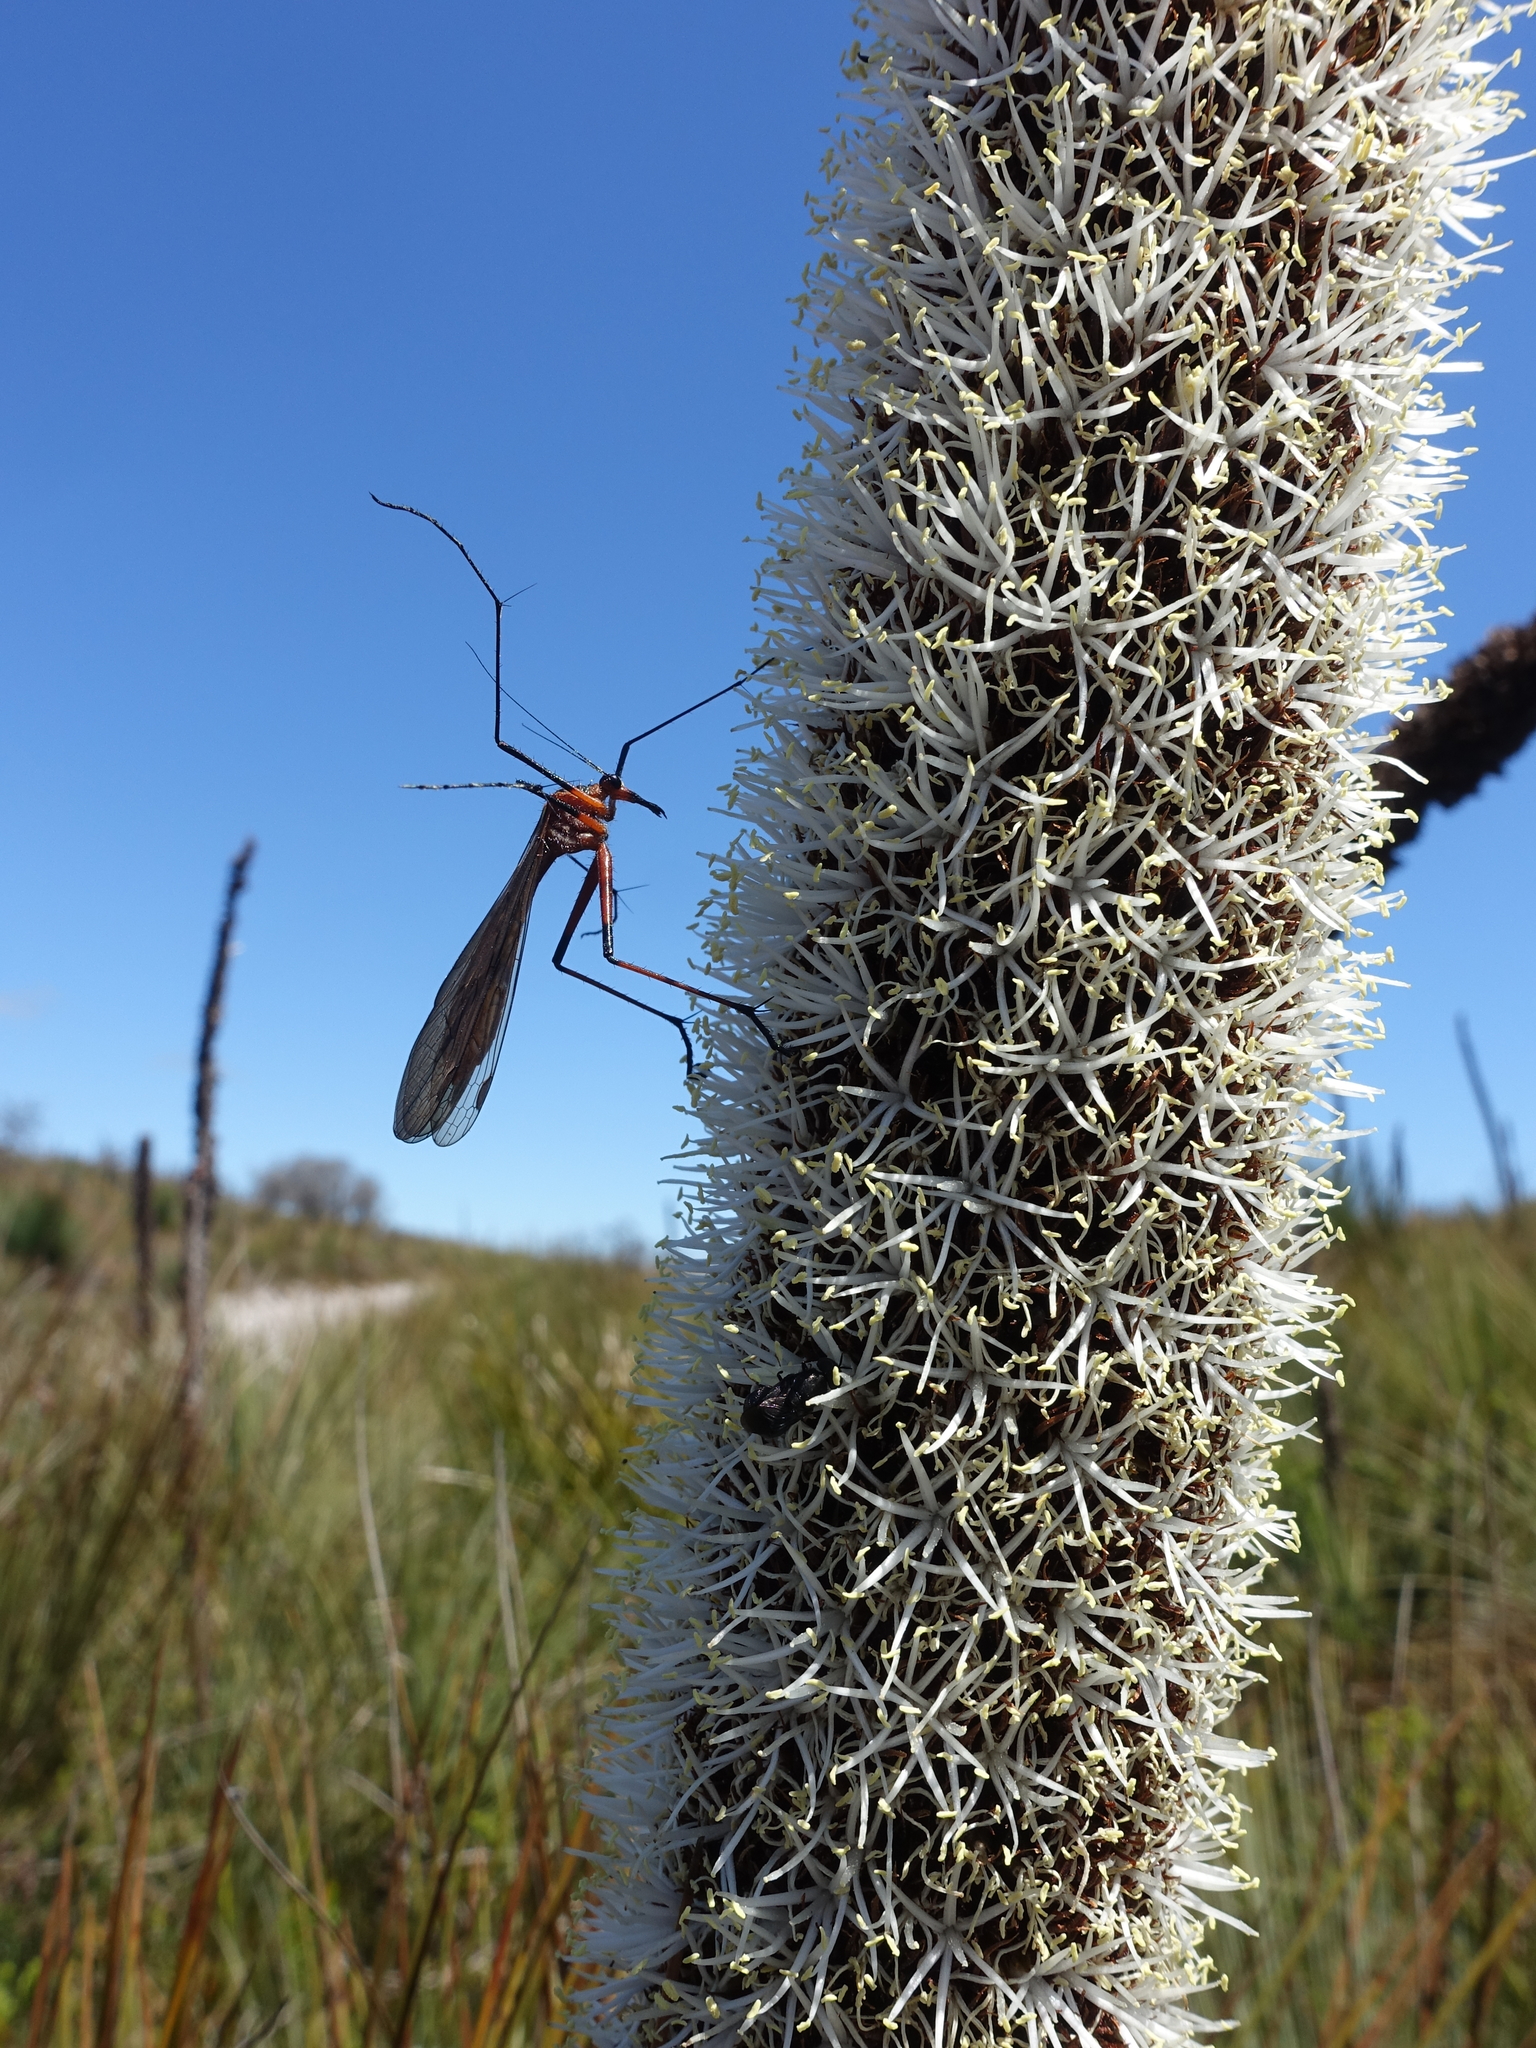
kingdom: Animalia
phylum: Arthropoda
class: Insecta
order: Mecoptera
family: Bittacidae
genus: Harpobittacus
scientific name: Harpobittacus australis
